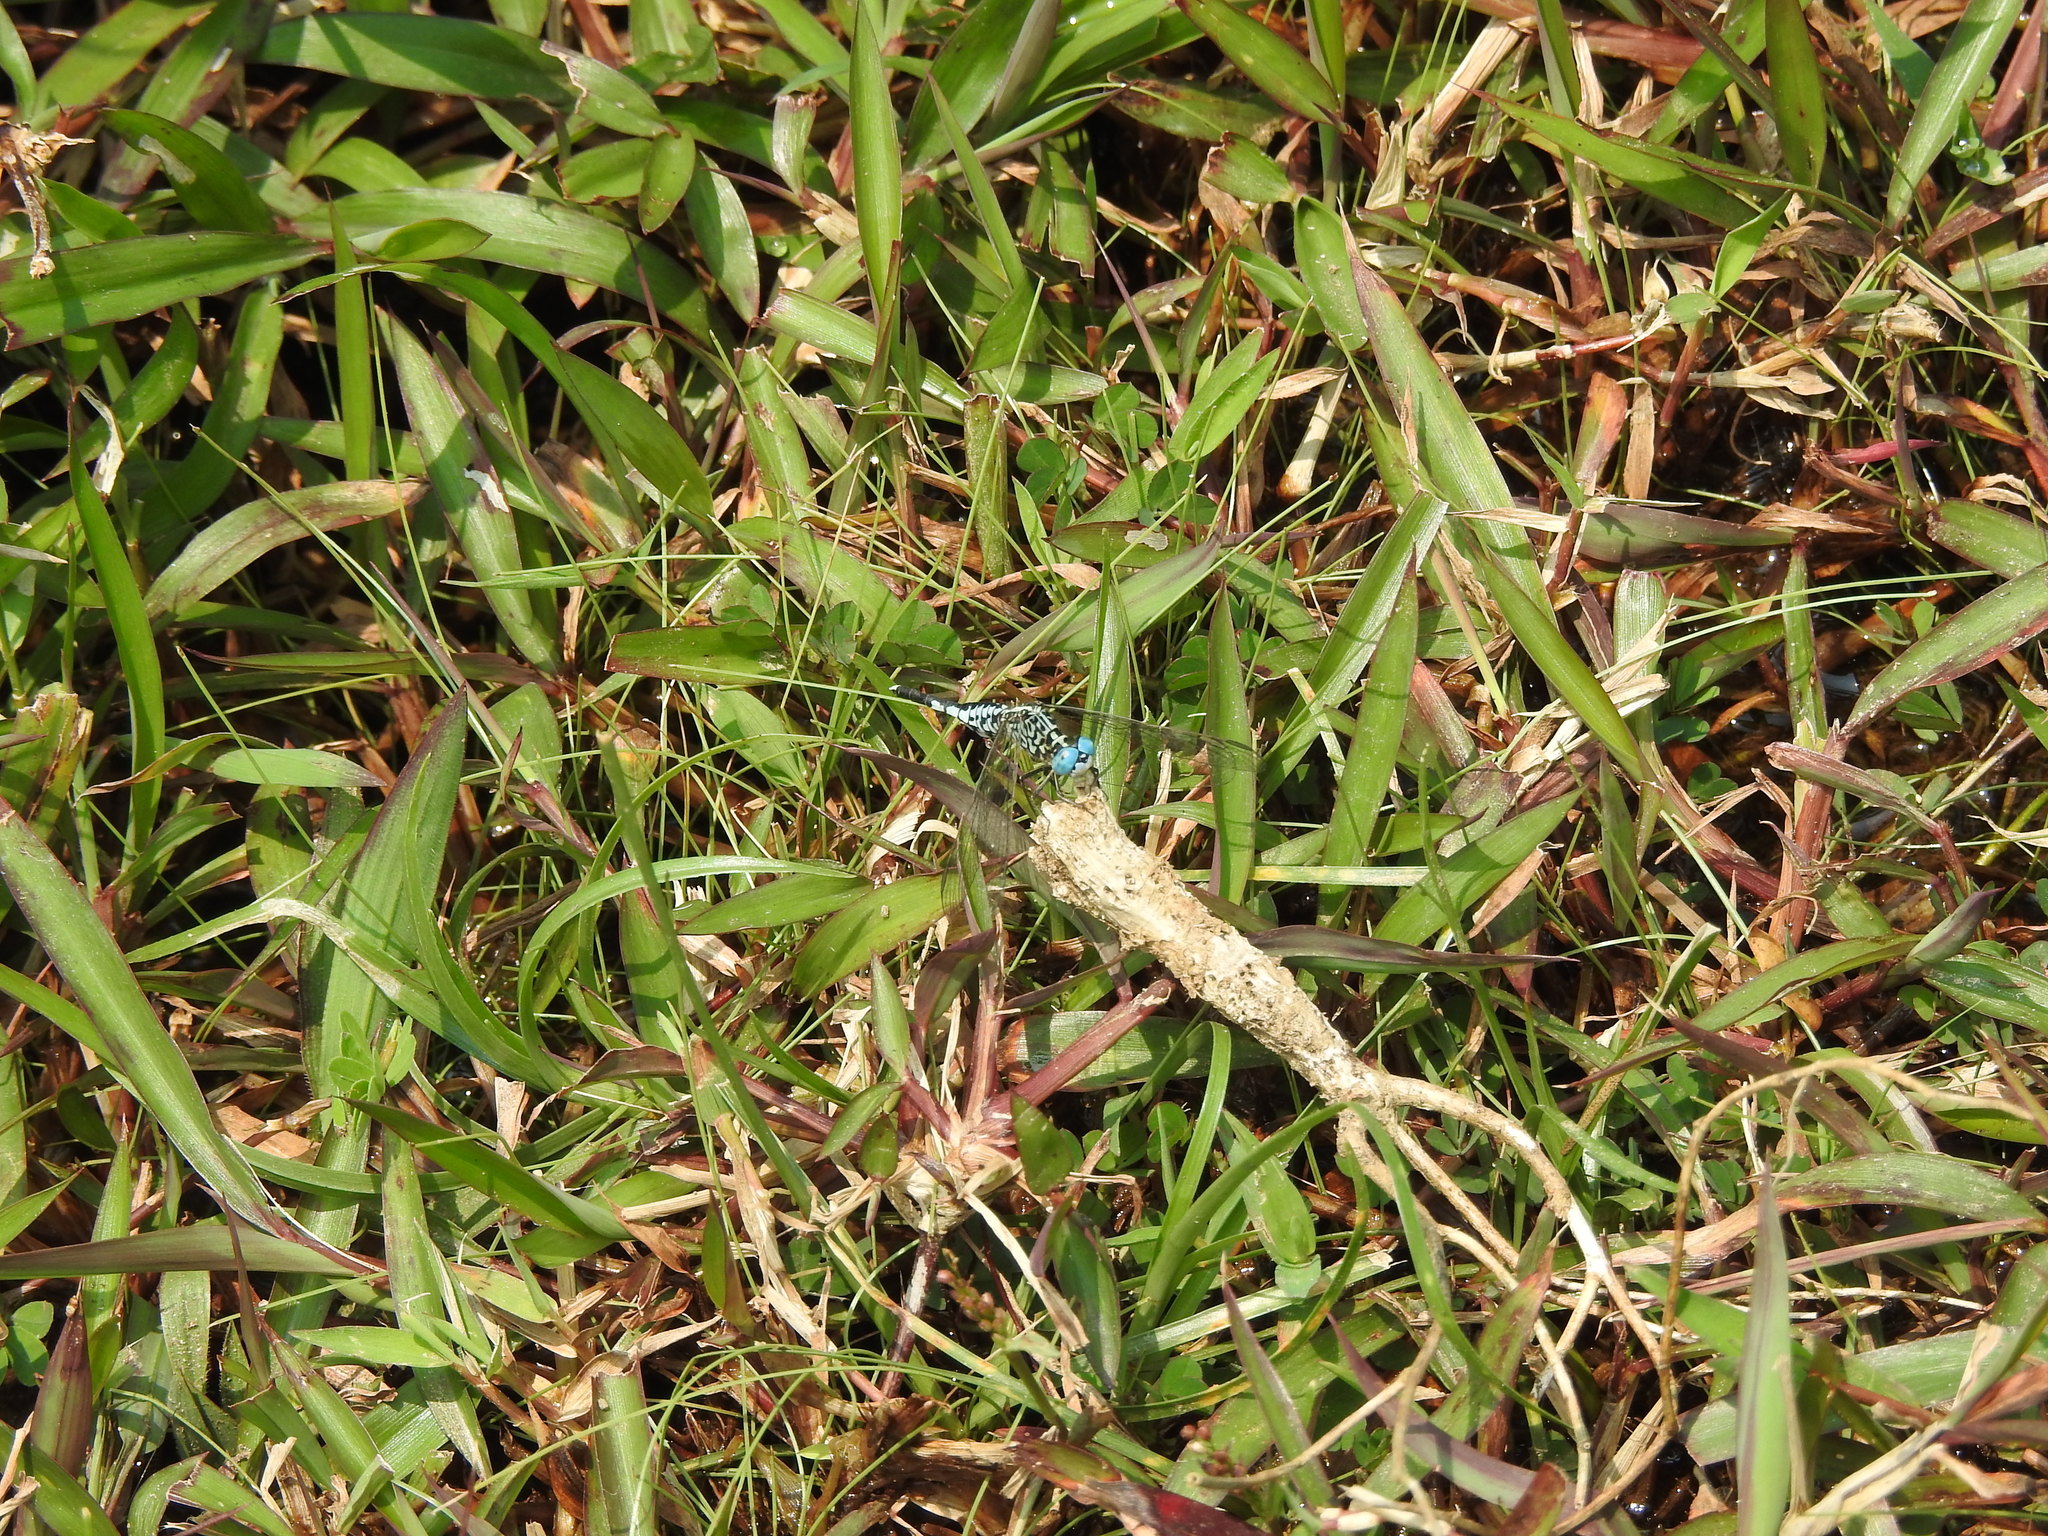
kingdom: Animalia
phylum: Arthropoda
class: Insecta
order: Odonata
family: Libellulidae
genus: Acisoma
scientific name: Acisoma panorpoides
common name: Asian pintail
